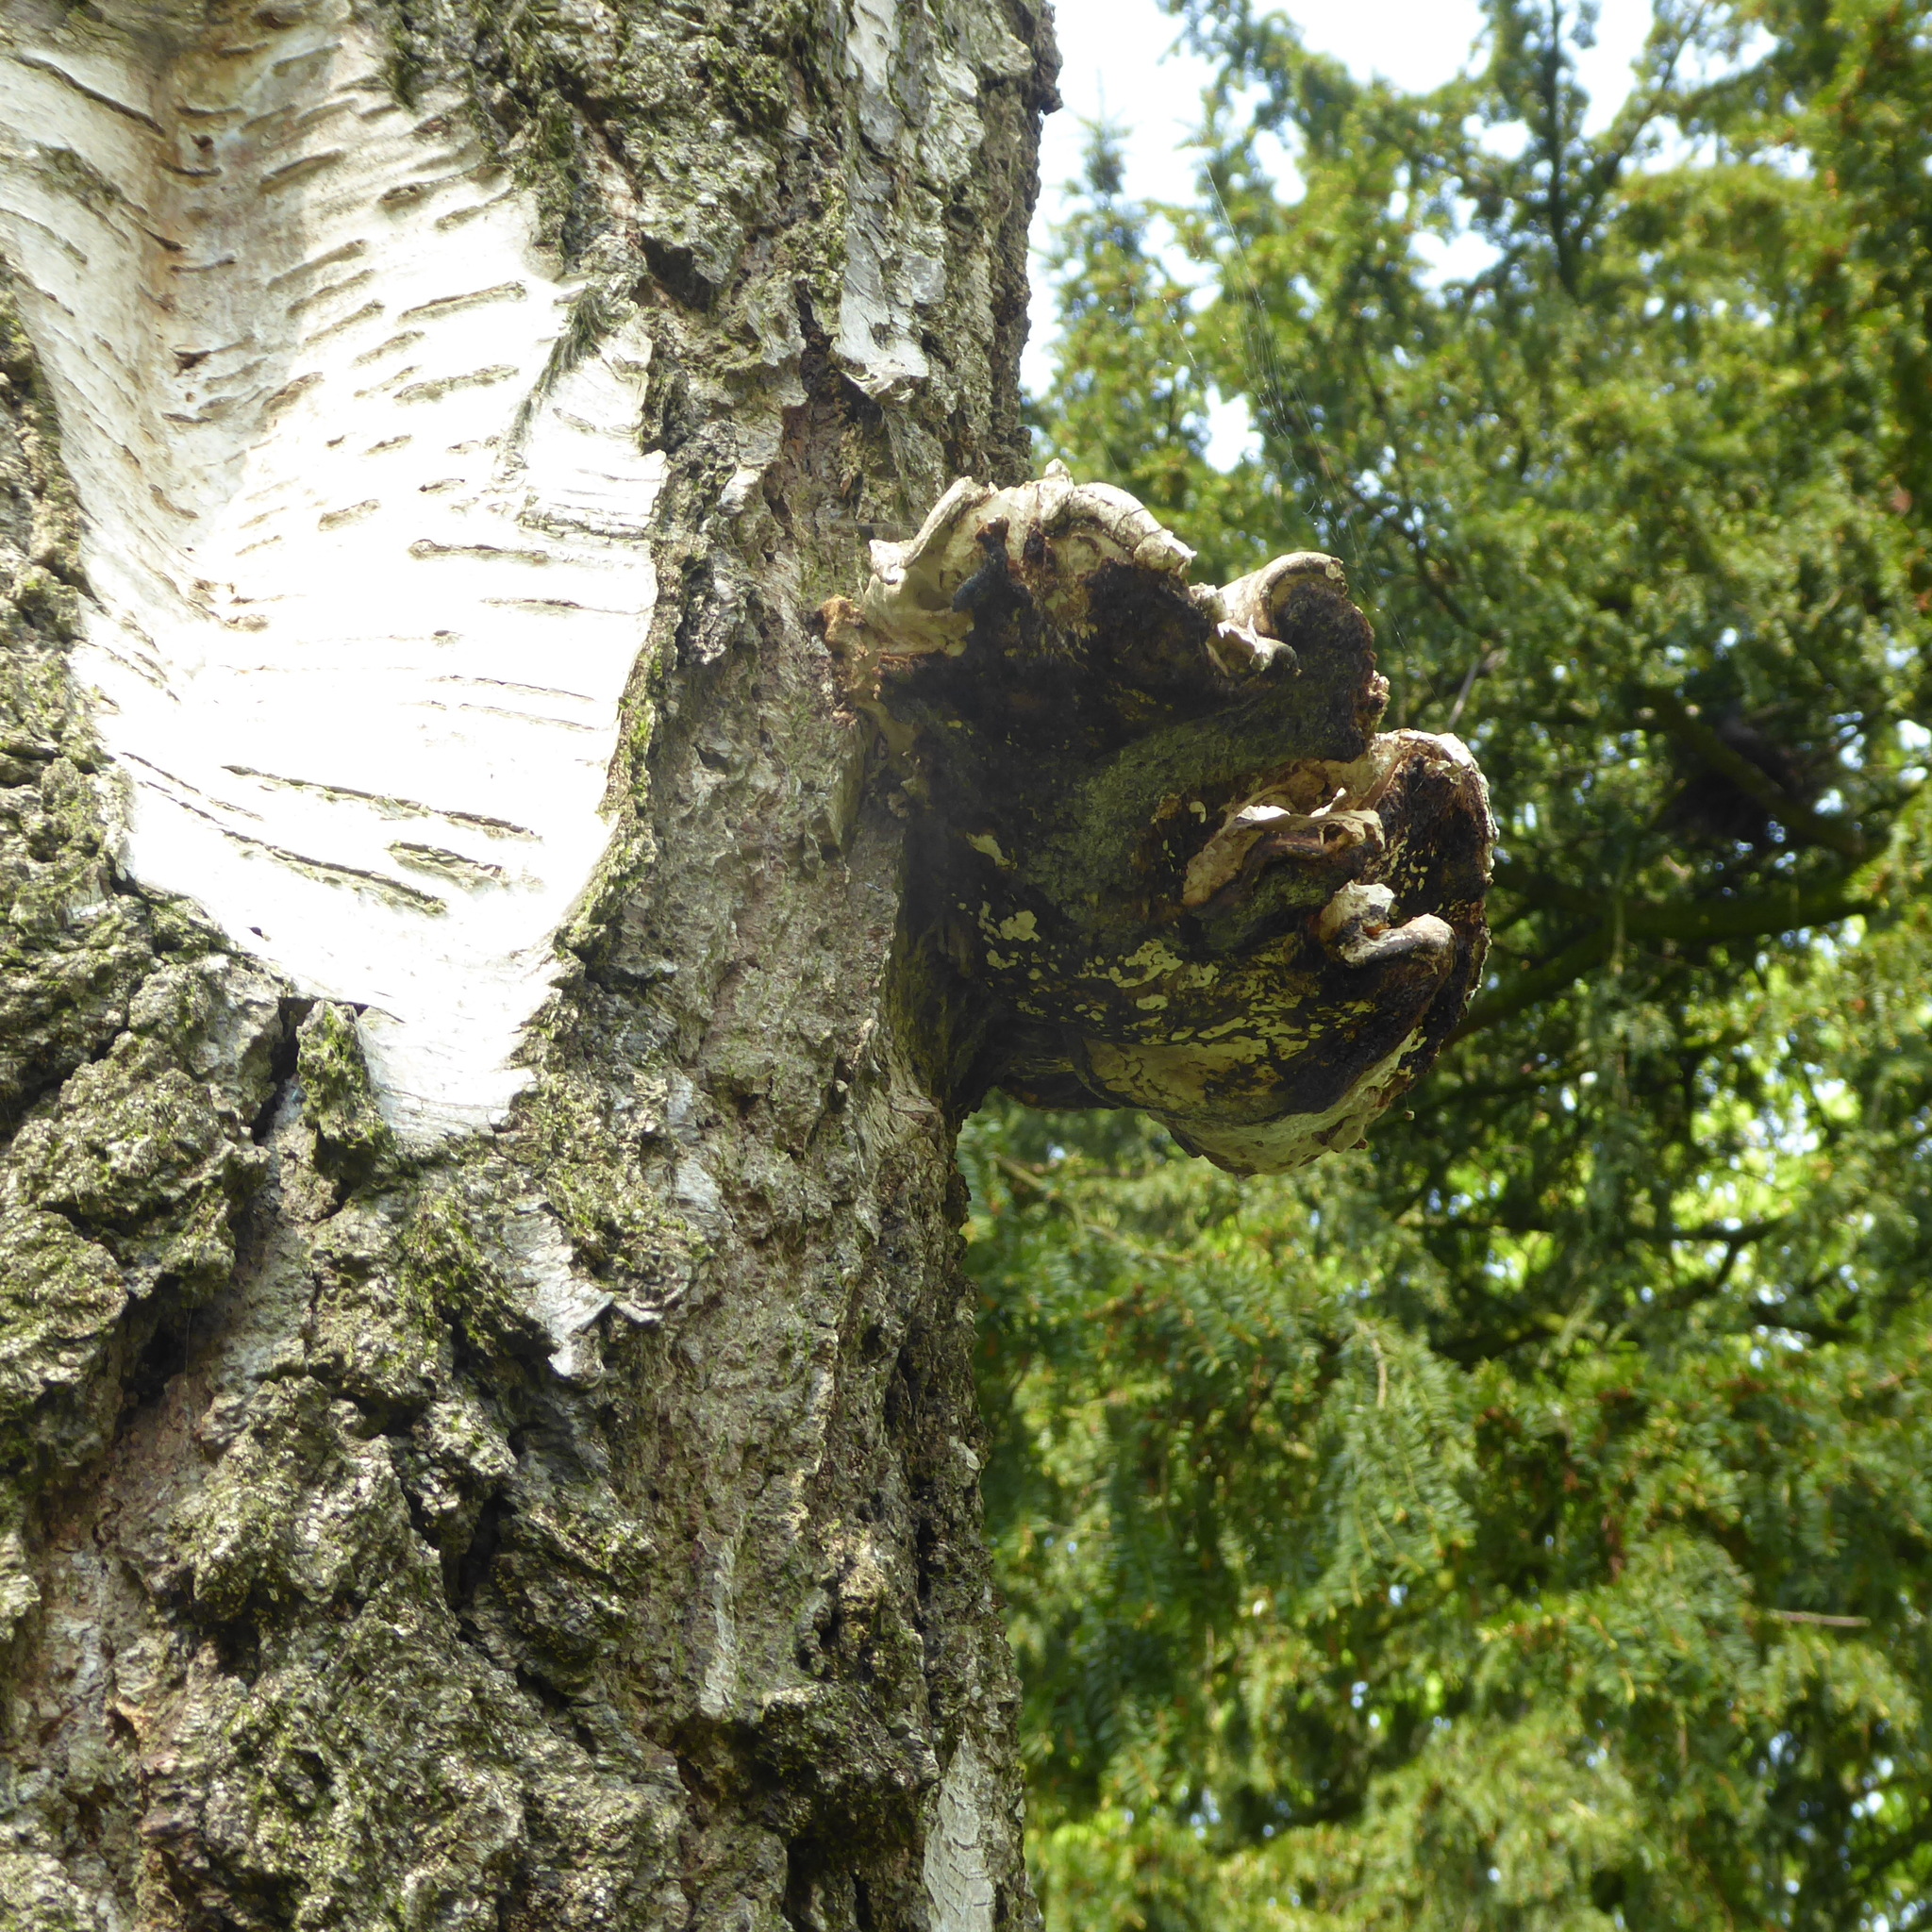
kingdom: Fungi
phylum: Basidiomycota
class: Agaricomycetes
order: Polyporales
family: Fomitopsidaceae
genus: Fomitopsis
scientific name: Fomitopsis betulina
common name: Birch polypore
